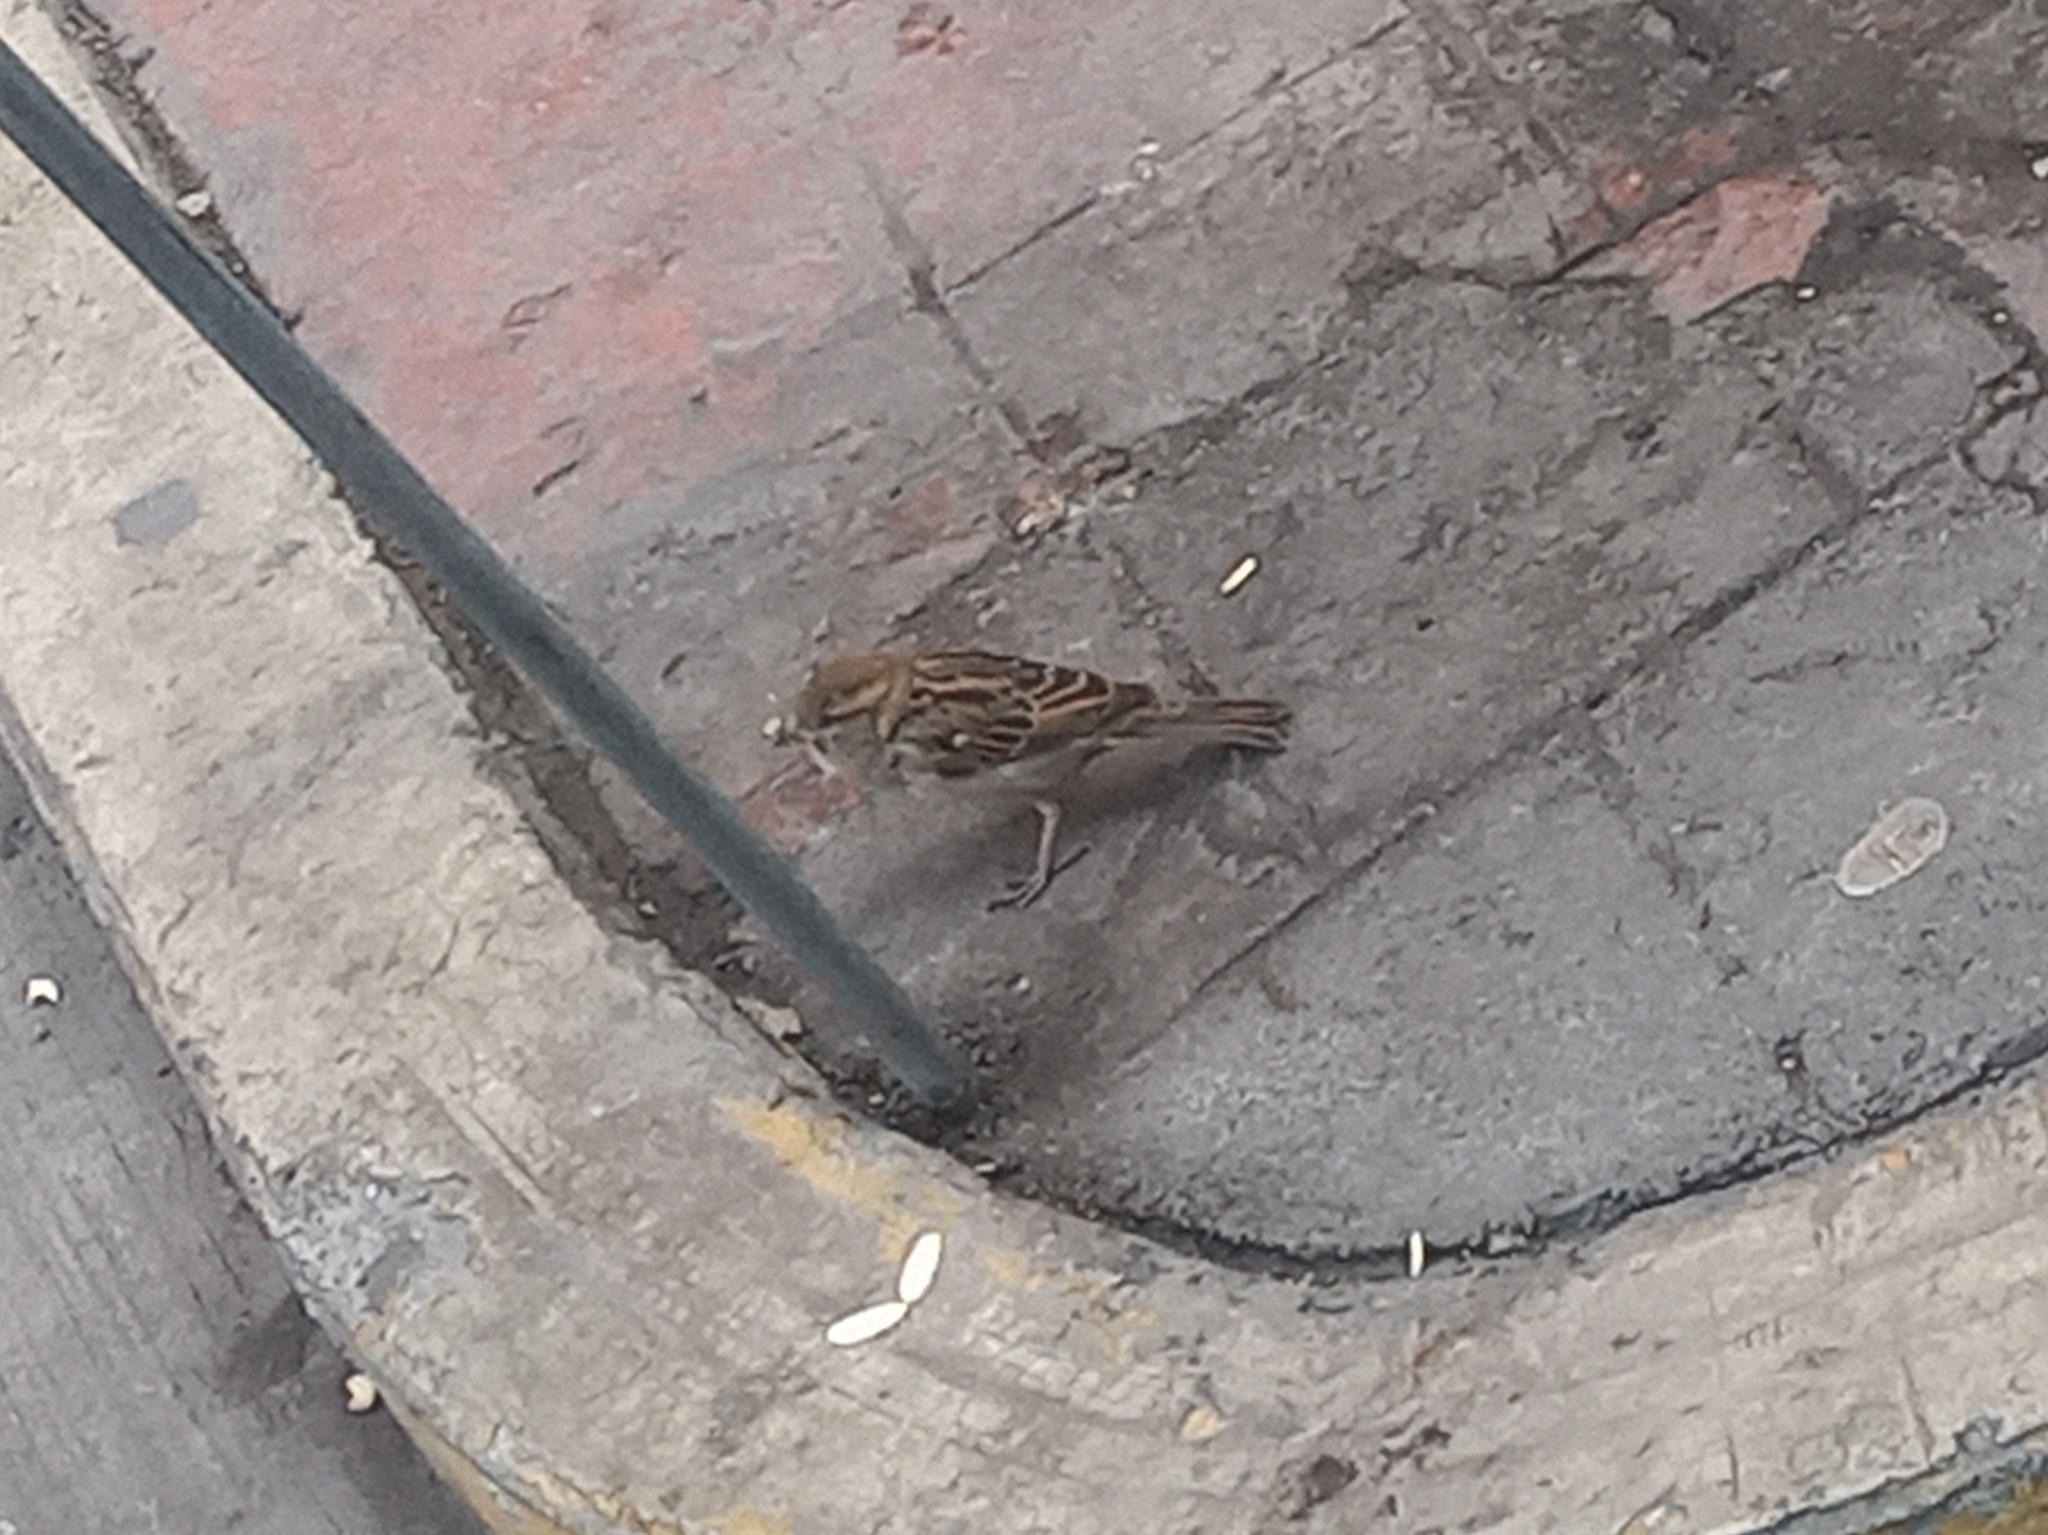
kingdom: Animalia
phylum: Chordata
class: Aves
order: Passeriformes
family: Passeridae
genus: Passer
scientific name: Passer domesticus
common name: House sparrow
